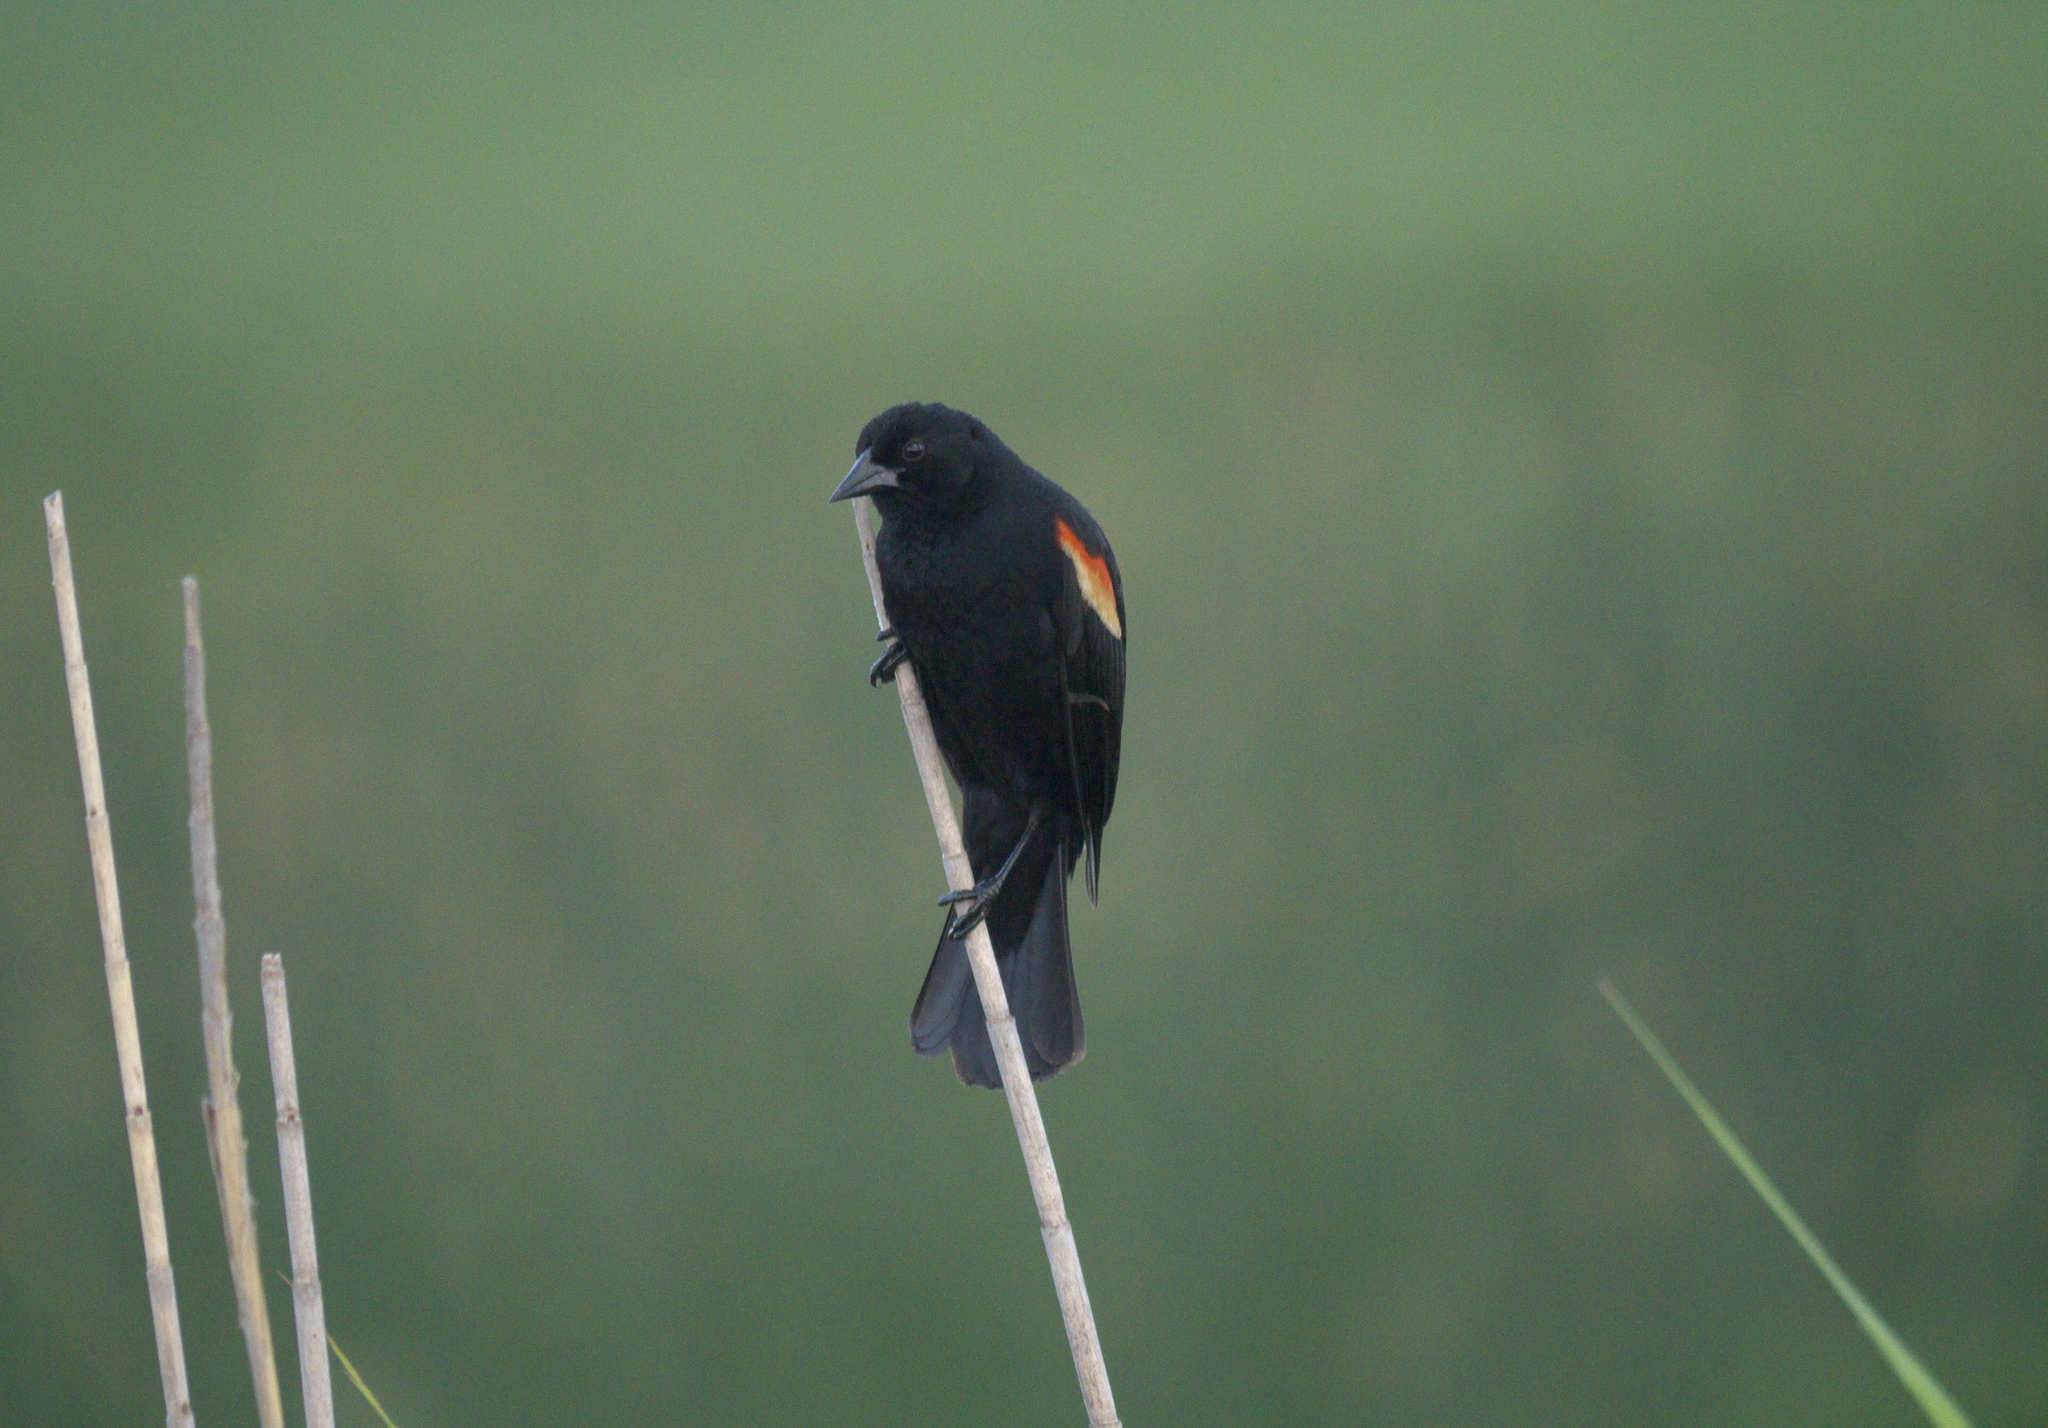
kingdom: Animalia
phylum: Chordata
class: Aves
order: Passeriformes
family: Icteridae
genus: Agelaius
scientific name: Agelaius phoeniceus
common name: Red-winged blackbird
